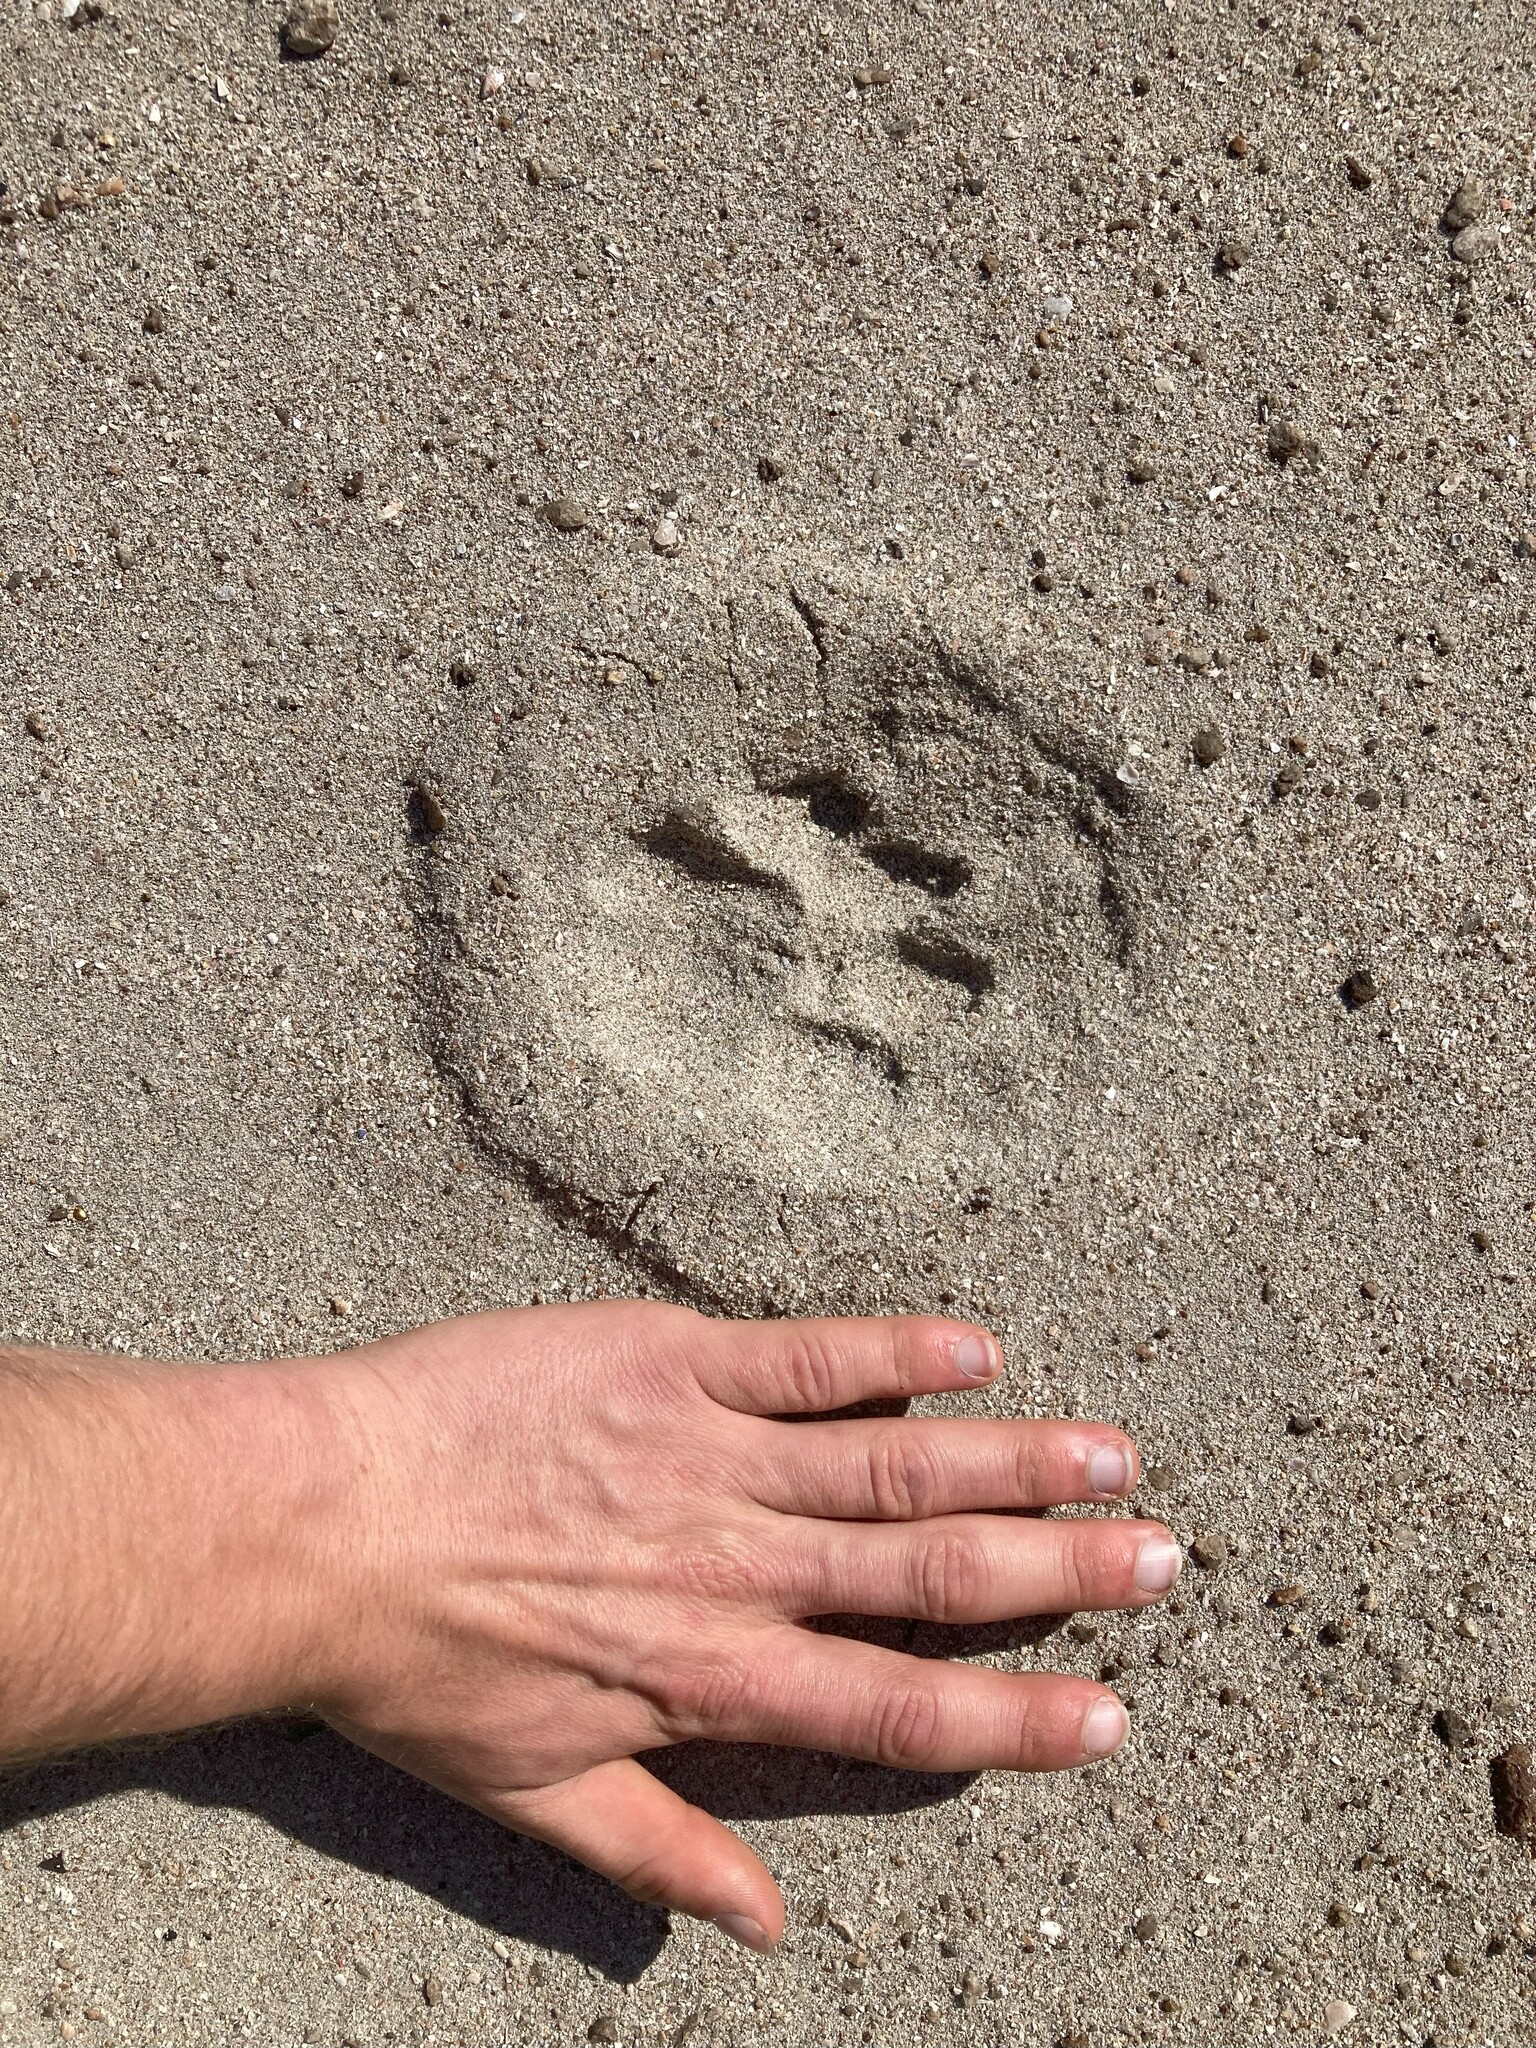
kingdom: Animalia
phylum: Chordata
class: Mammalia
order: Carnivora
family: Felidae
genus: Panthera
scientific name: Panthera pardus
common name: Leopard
